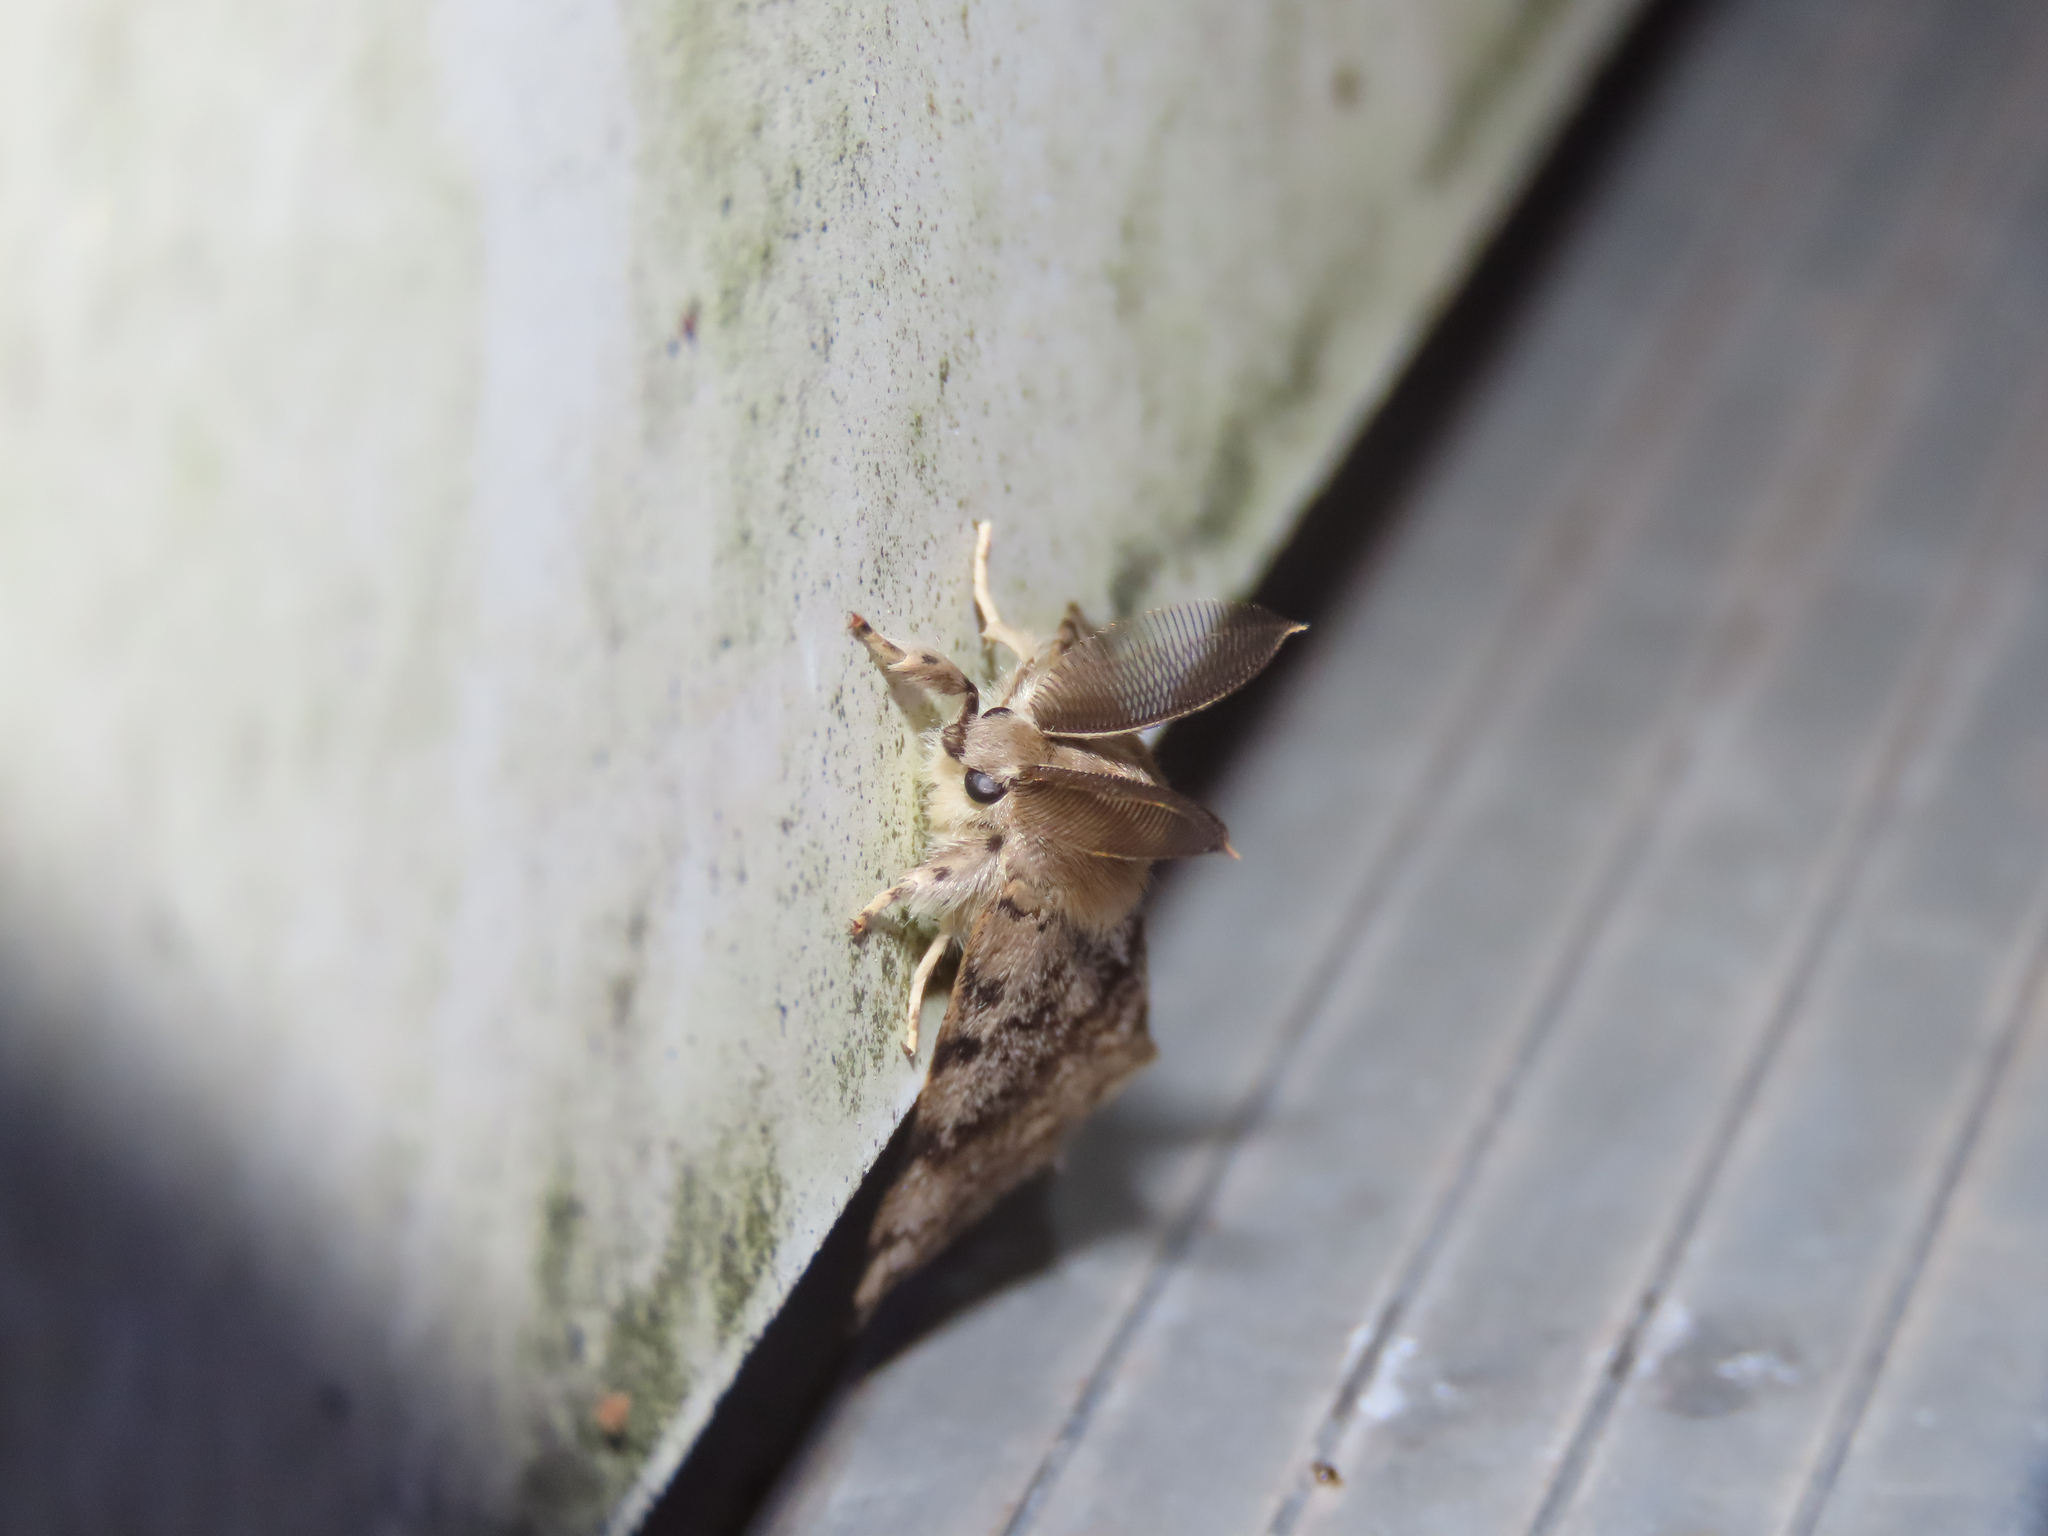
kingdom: Animalia
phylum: Arthropoda
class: Insecta
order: Lepidoptera
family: Erebidae
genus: Lymantria
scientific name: Lymantria dispar
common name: Gypsy moth
